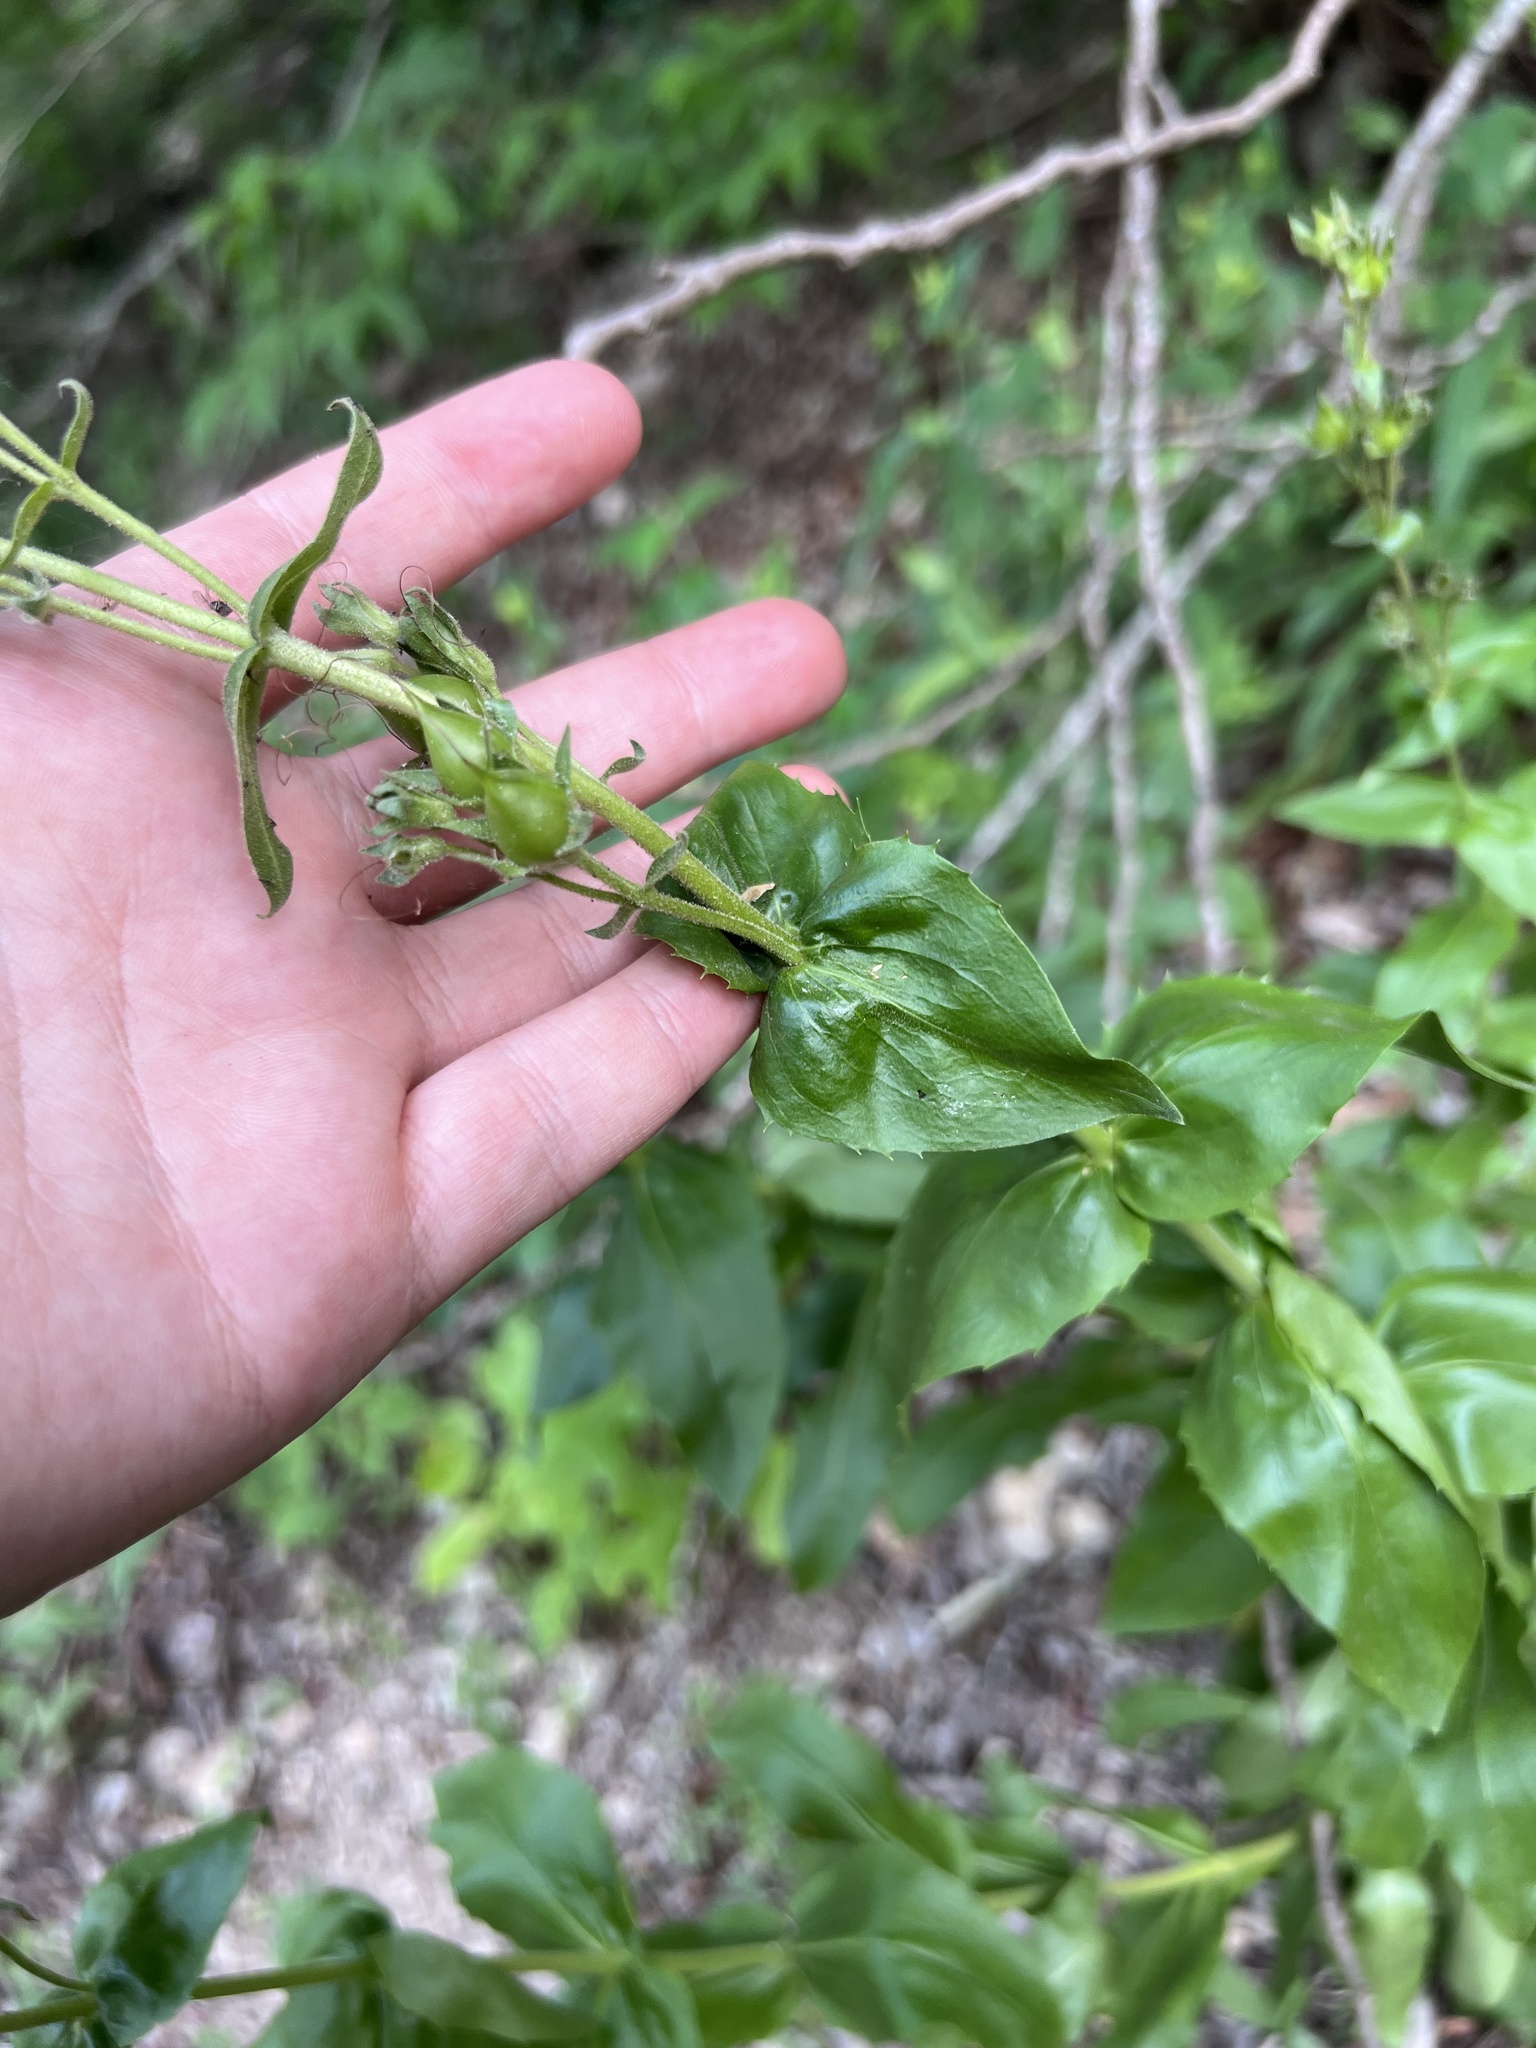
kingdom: Plantae
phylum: Tracheophyta
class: Magnoliopsida
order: Lamiales
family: Plantaginaceae
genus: Penstemon
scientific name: Penstemon triflorus
